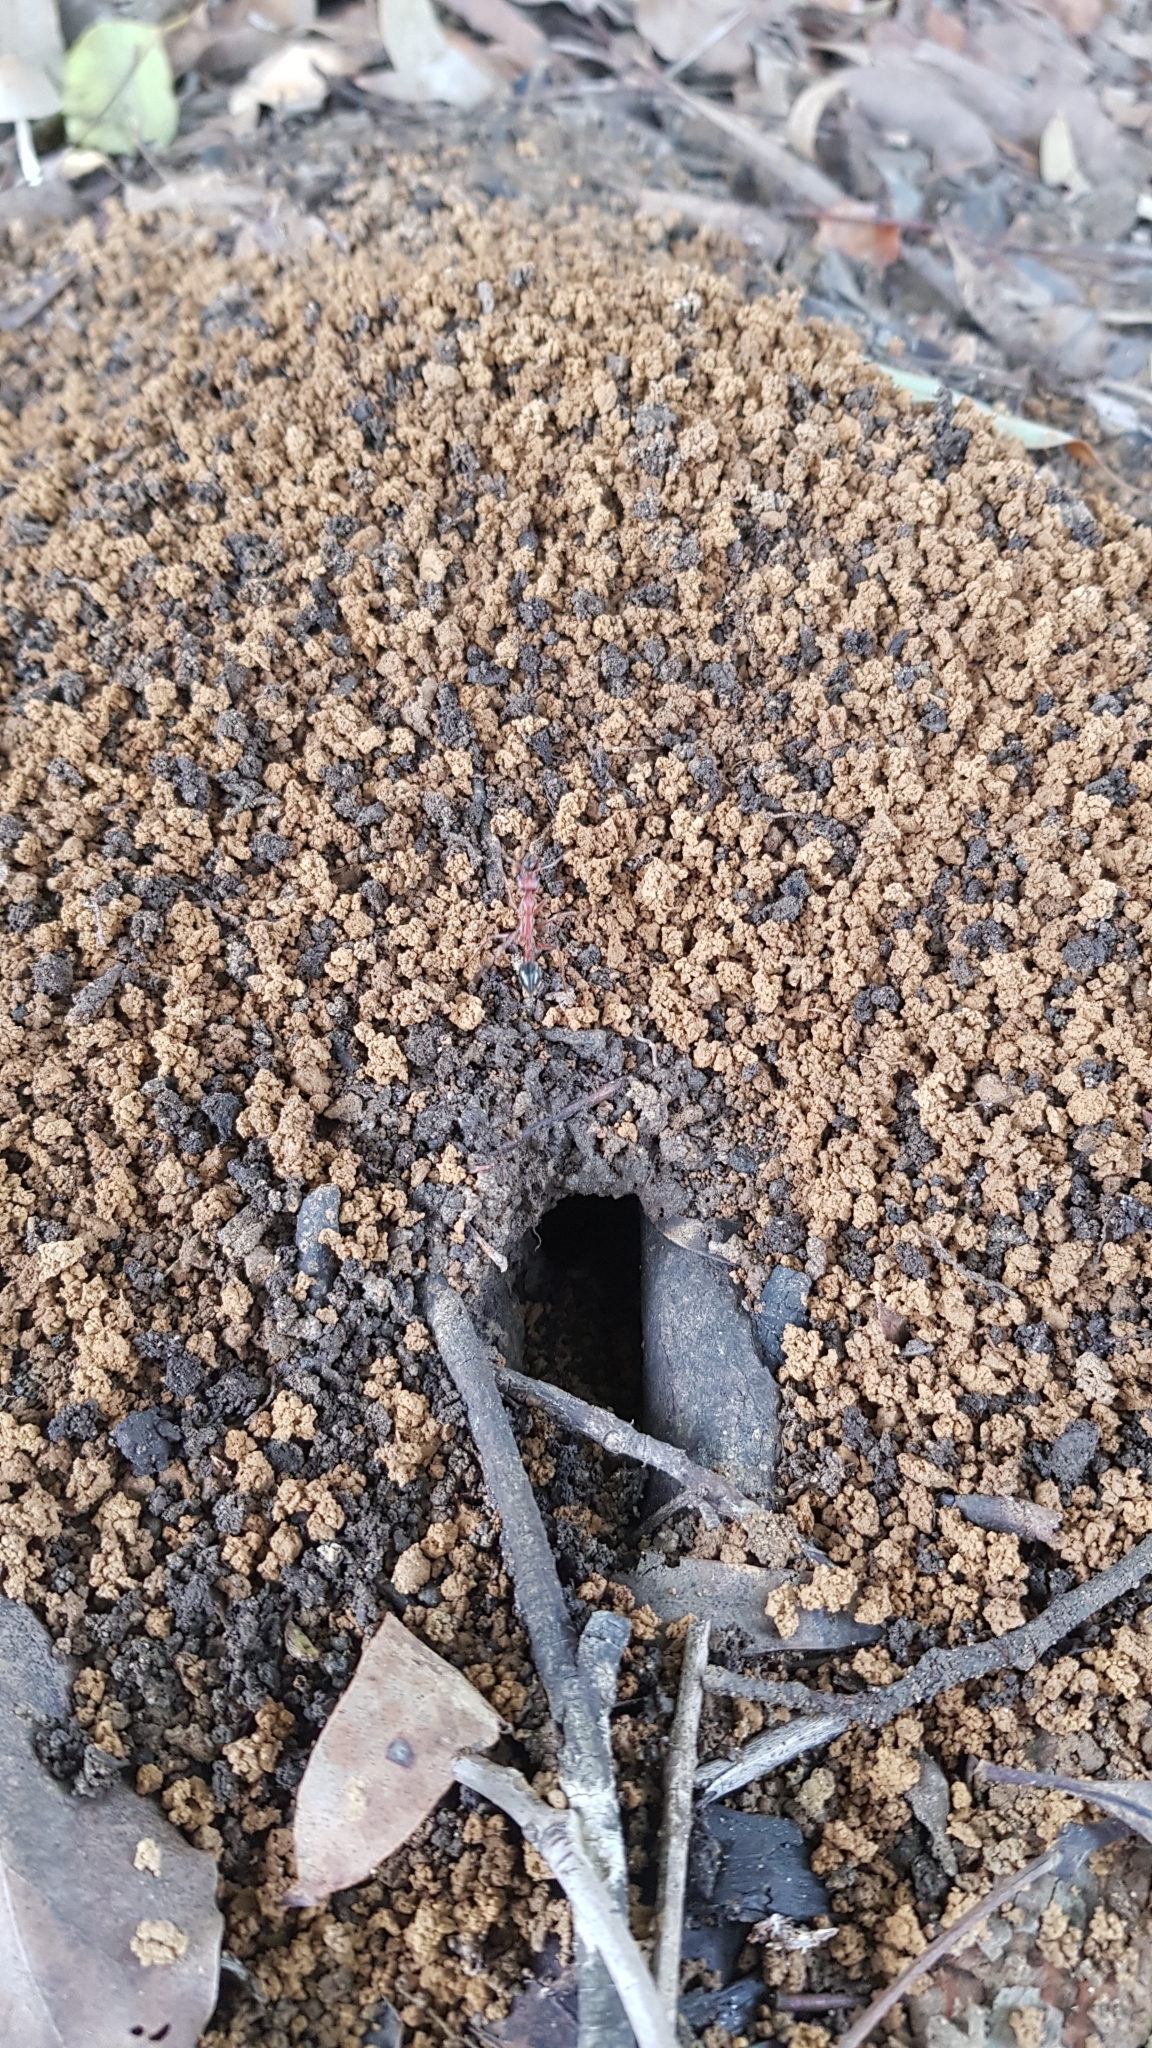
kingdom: Animalia
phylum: Arthropoda
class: Insecta
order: Hymenoptera
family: Formicidae
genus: Myrmecia
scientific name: Myrmecia brevinoda
